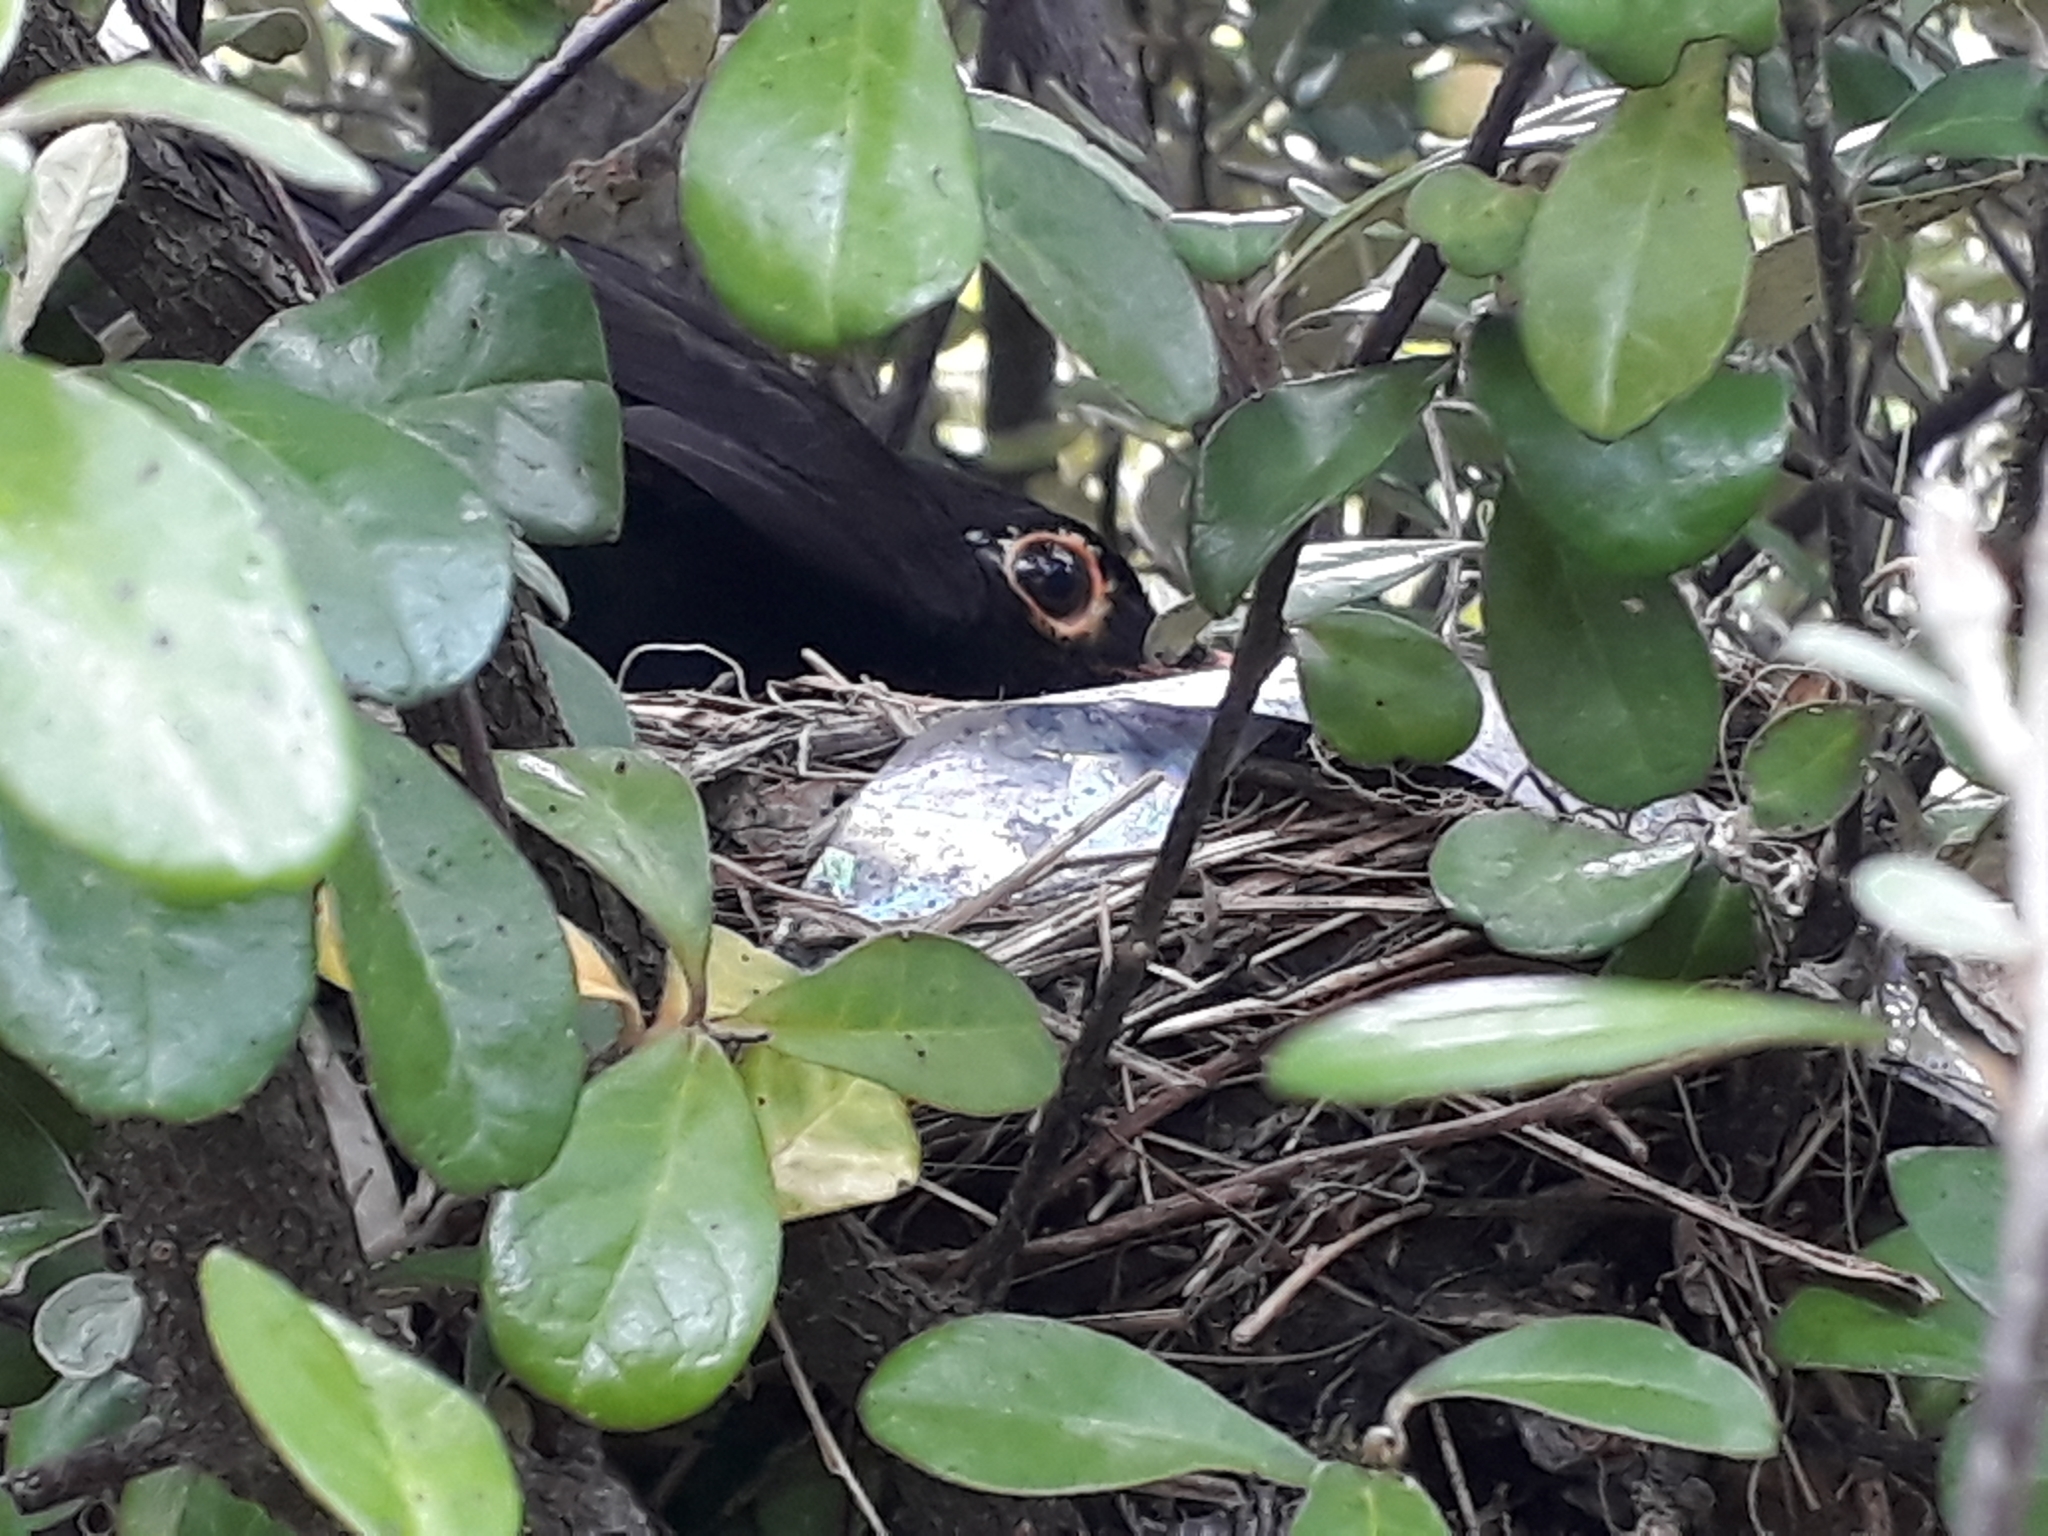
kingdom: Animalia
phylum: Chordata
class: Aves
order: Passeriformes
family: Turdidae
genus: Turdus
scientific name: Turdus merula
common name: Common blackbird
